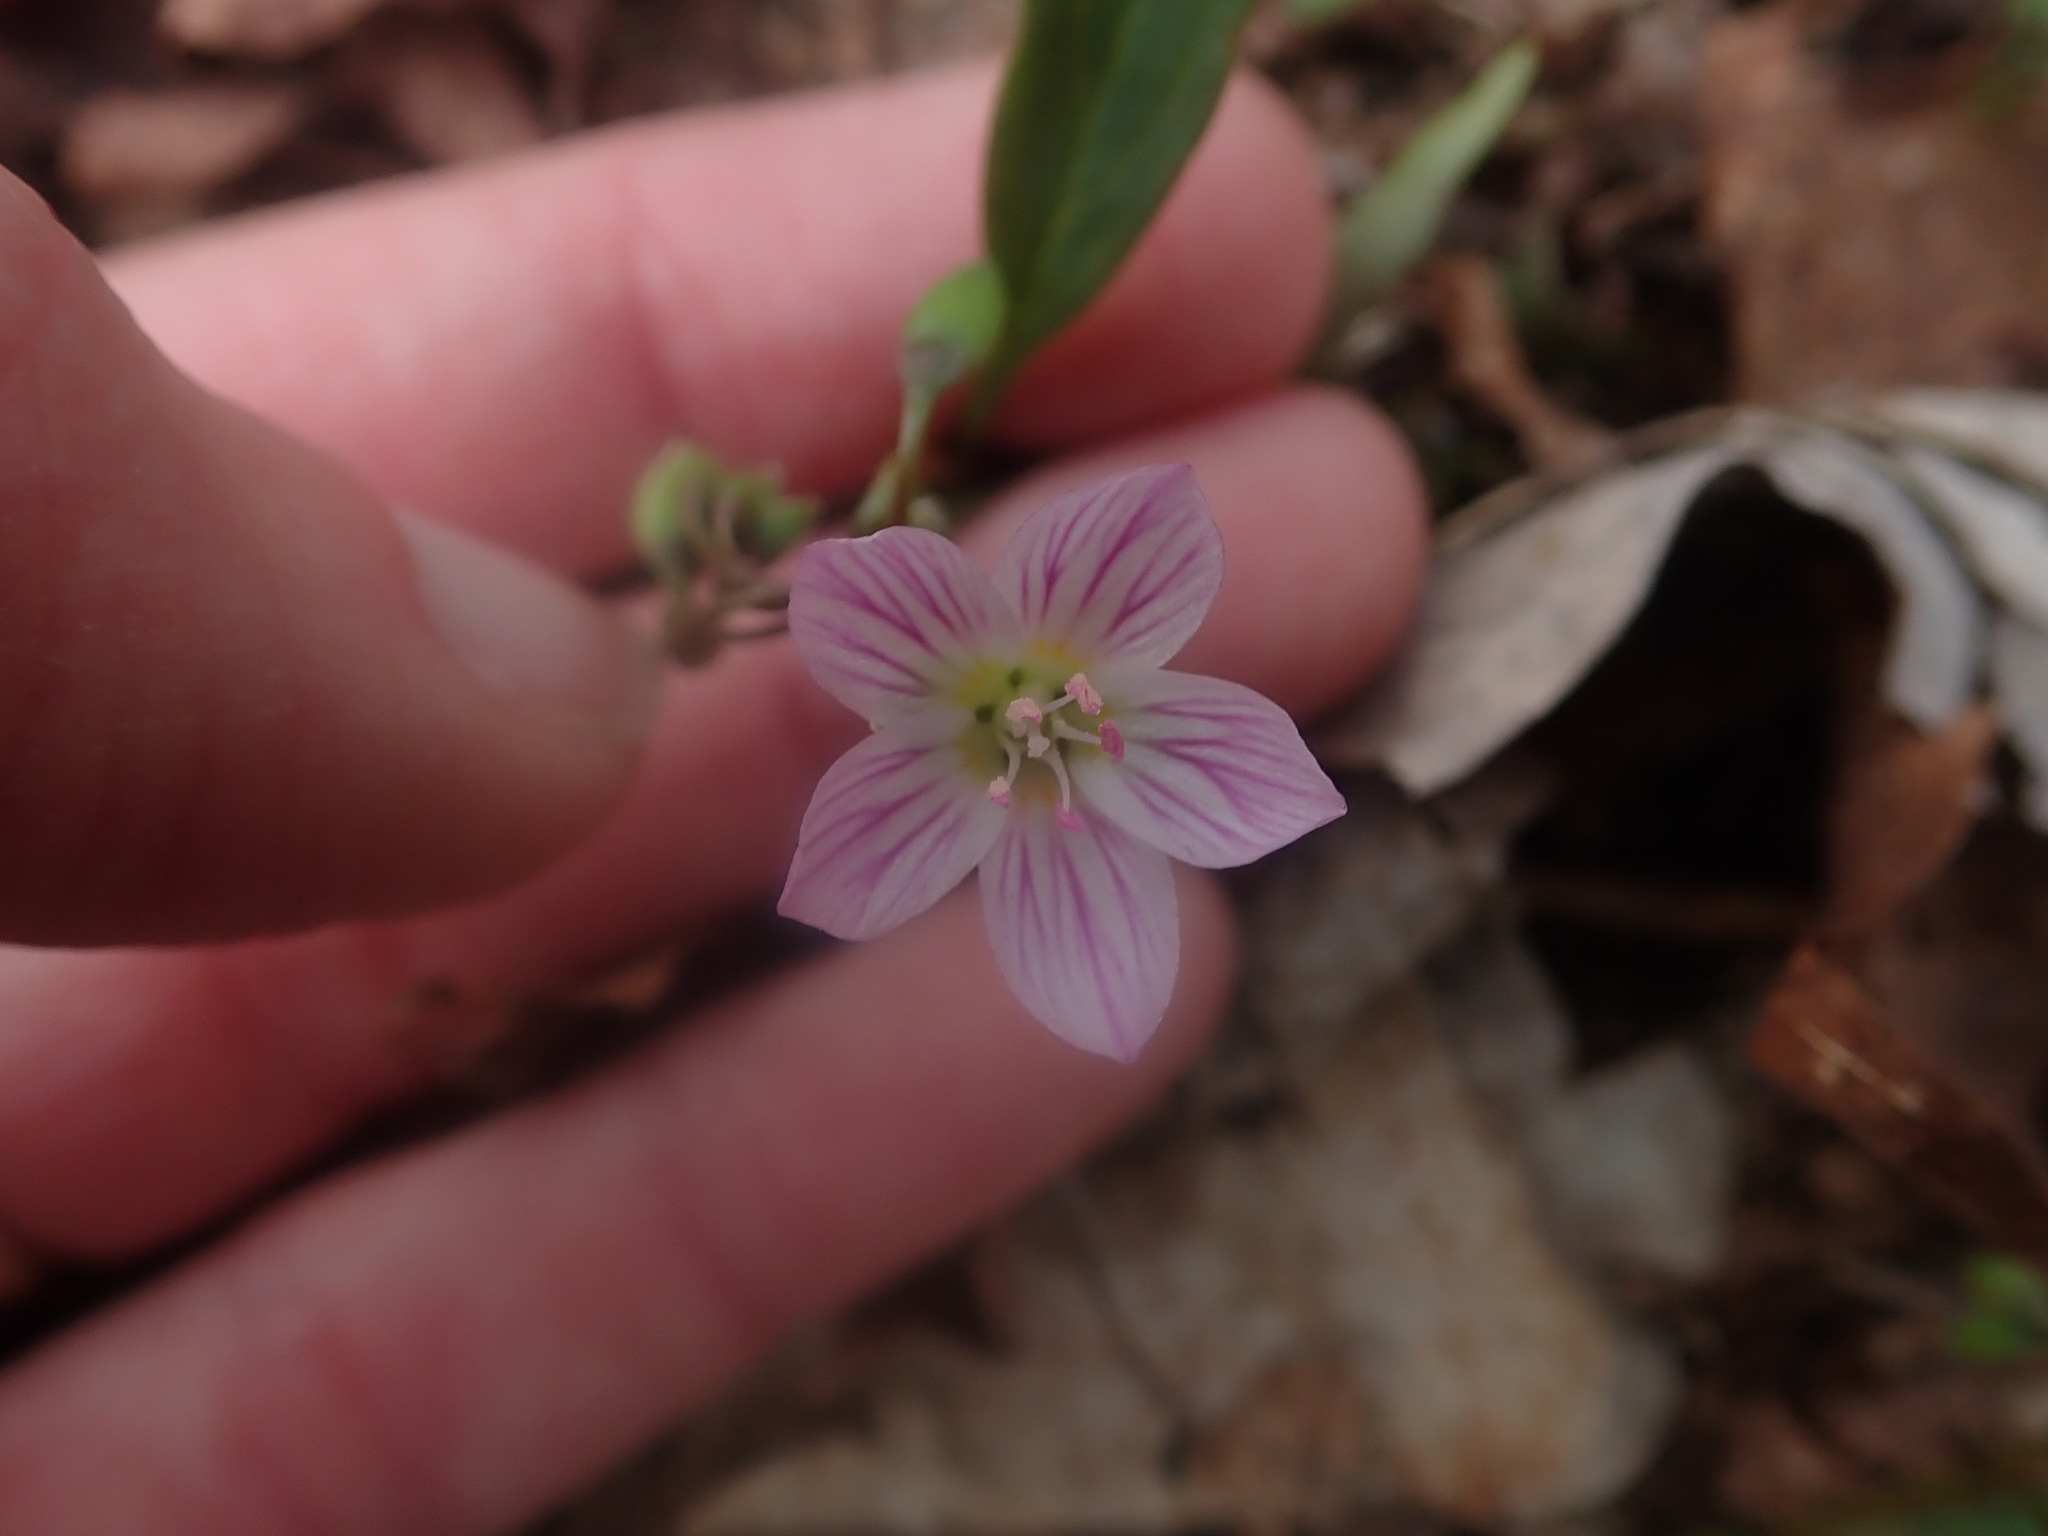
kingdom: Plantae
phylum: Tracheophyta
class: Magnoliopsida
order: Caryophyllales
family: Montiaceae
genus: Claytonia
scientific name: Claytonia caroliniana
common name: Carolina spring beauty
